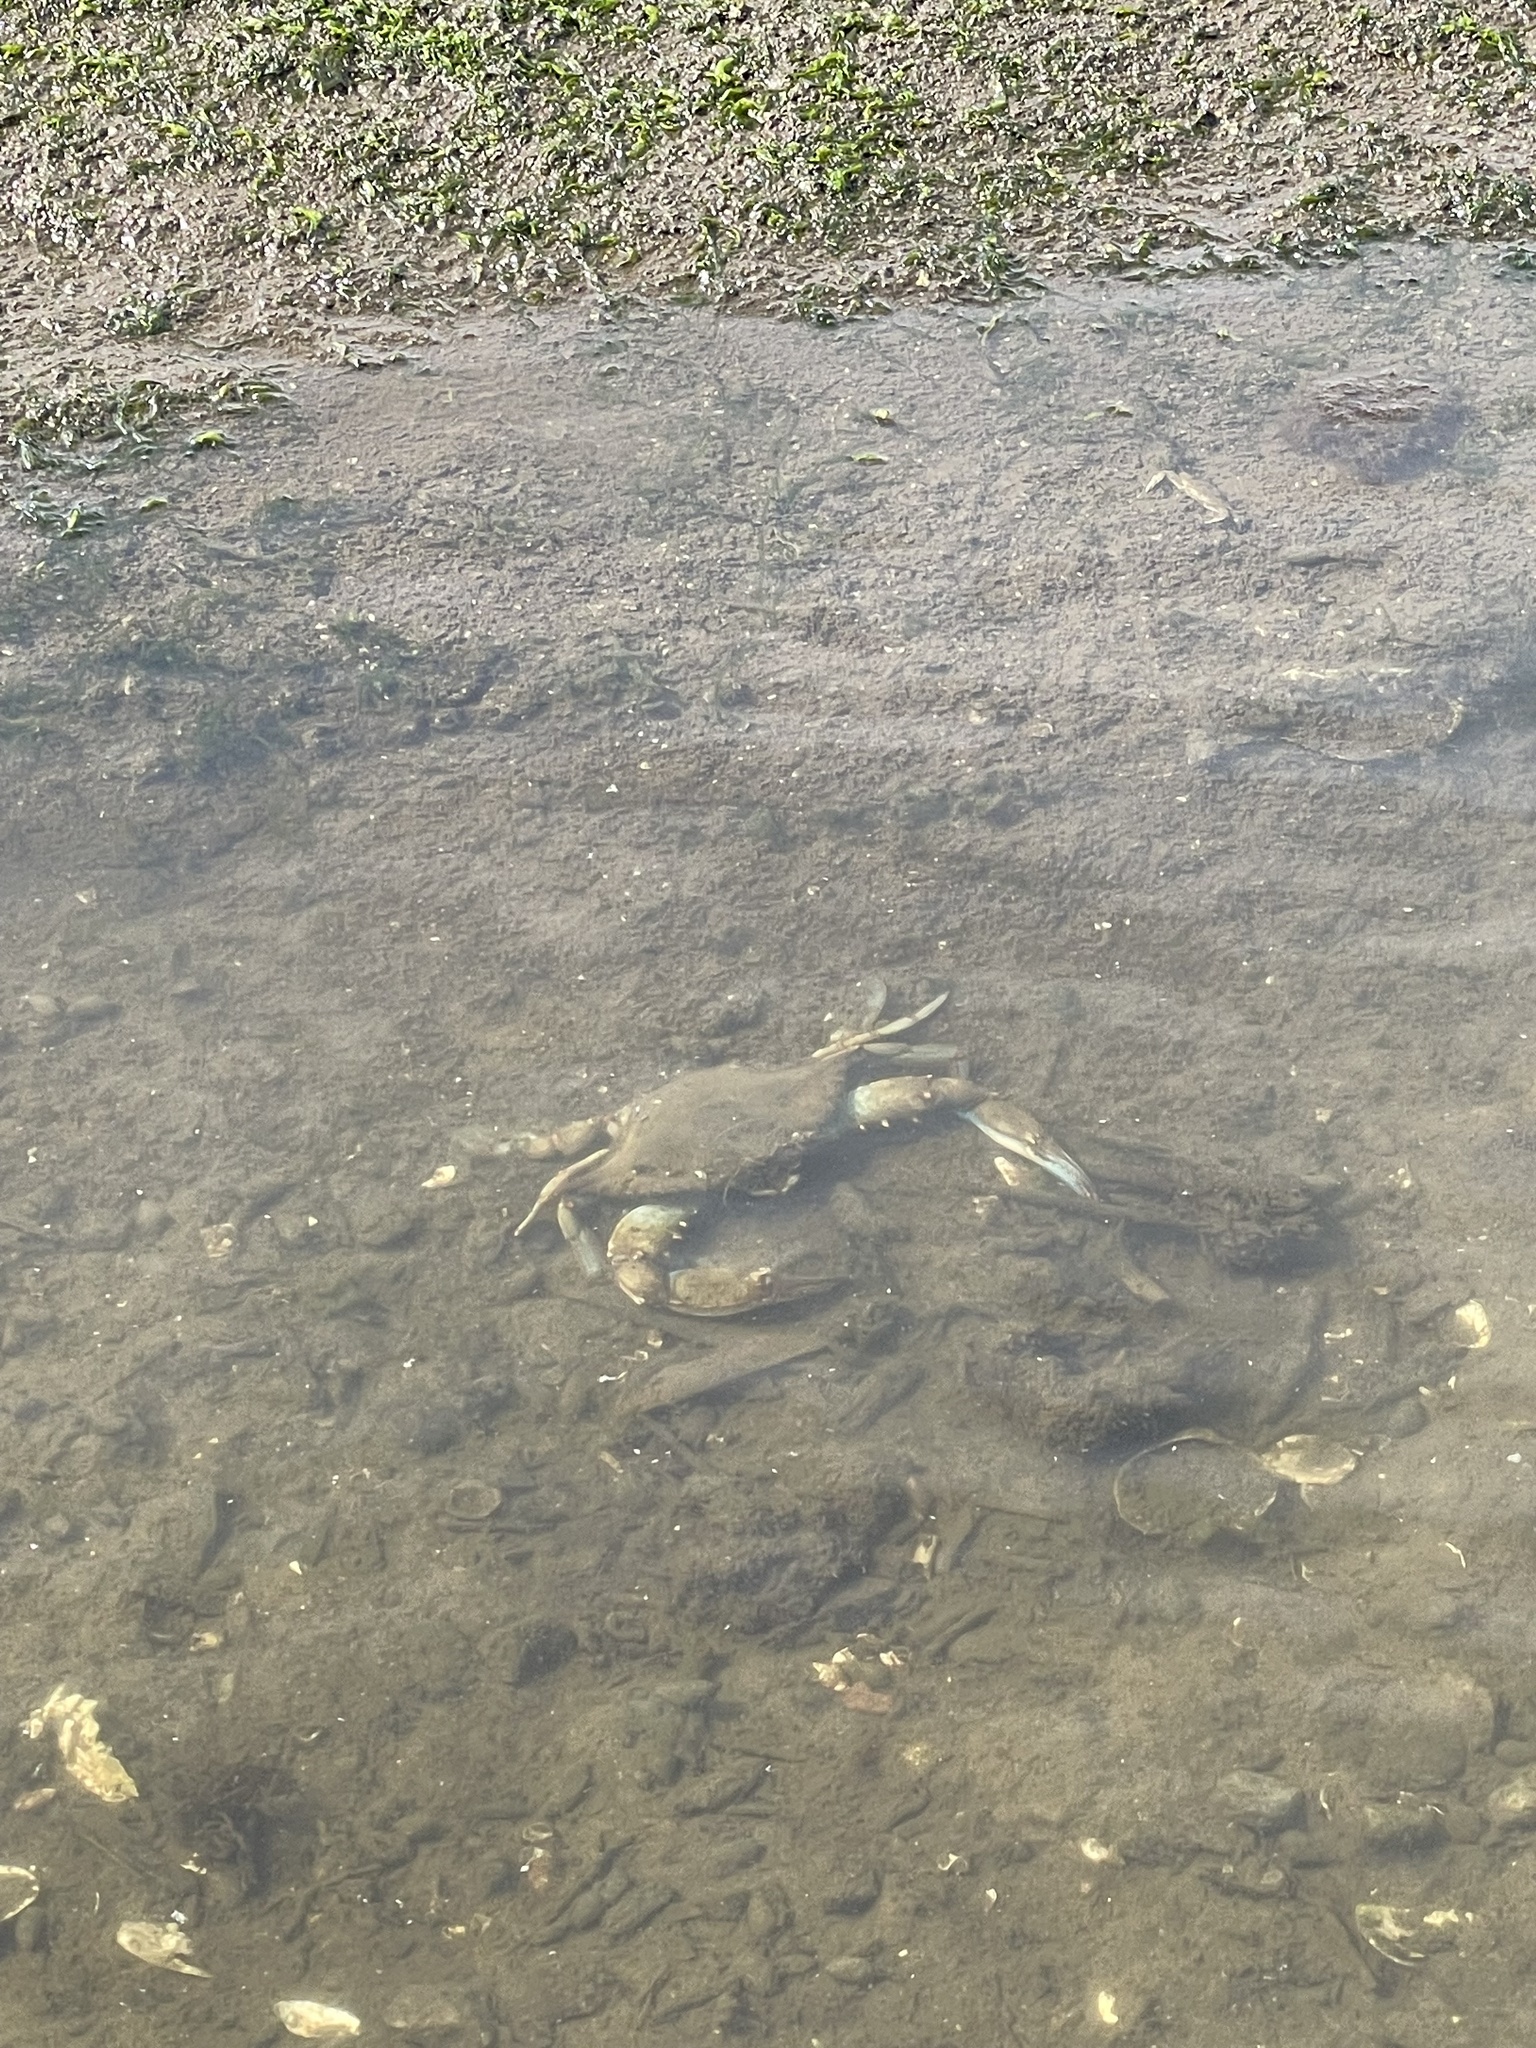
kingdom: Animalia
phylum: Arthropoda
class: Malacostraca
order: Decapoda
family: Portunidae
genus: Callinectes
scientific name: Callinectes sapidus
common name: Blue crab
